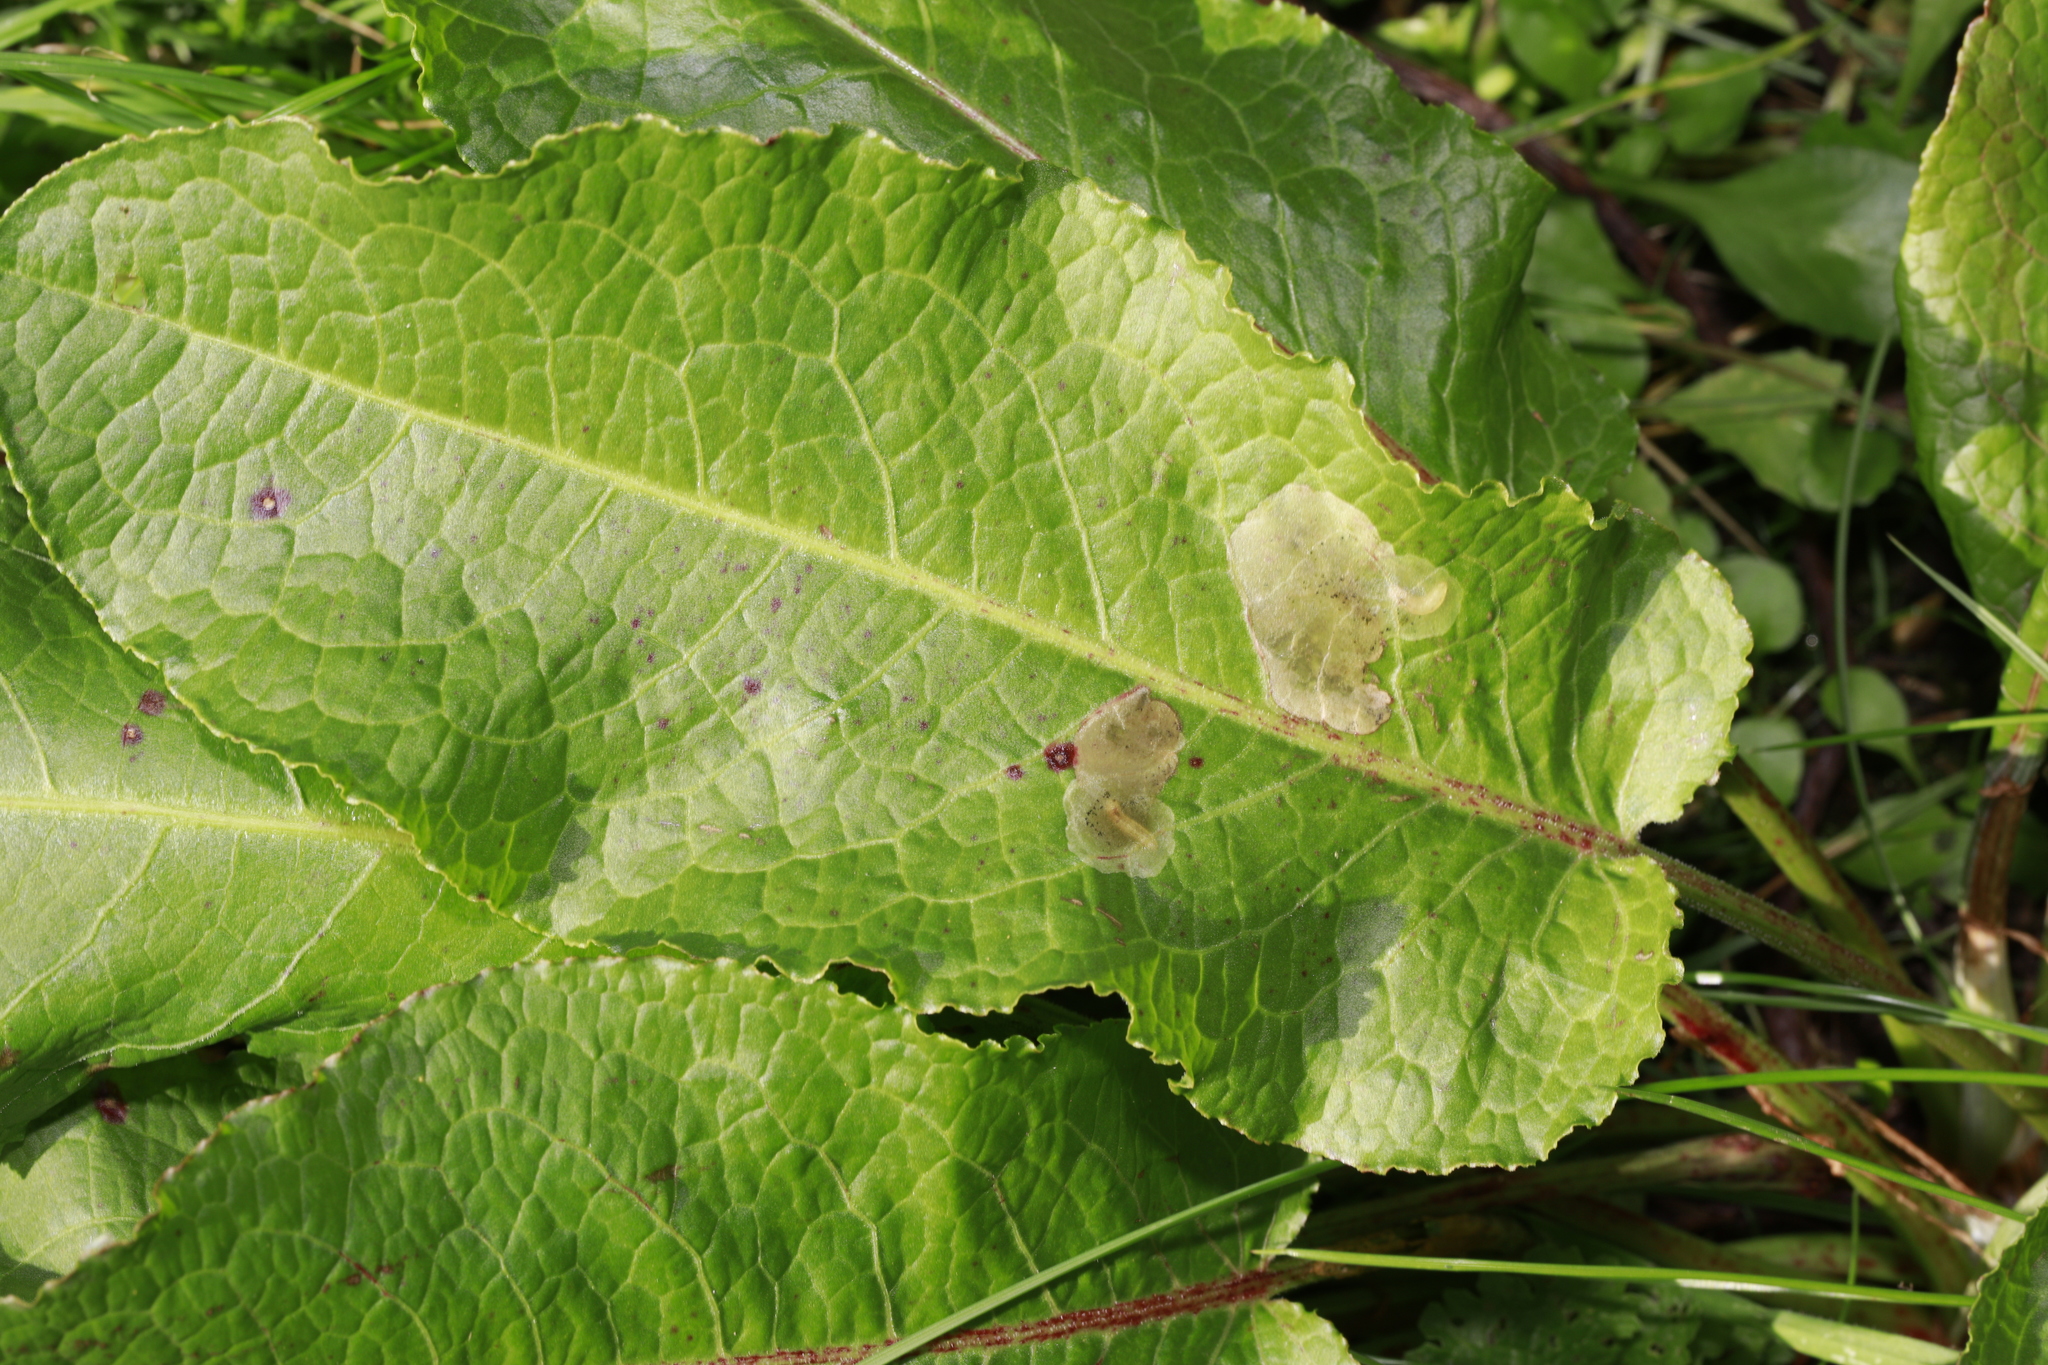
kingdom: Plantae
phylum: Tracheophyta
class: Magnoliopsida
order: Caryophyllales
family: Polygonaceae
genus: Rumex
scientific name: Rumex obtusifolius
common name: Bitter dock
